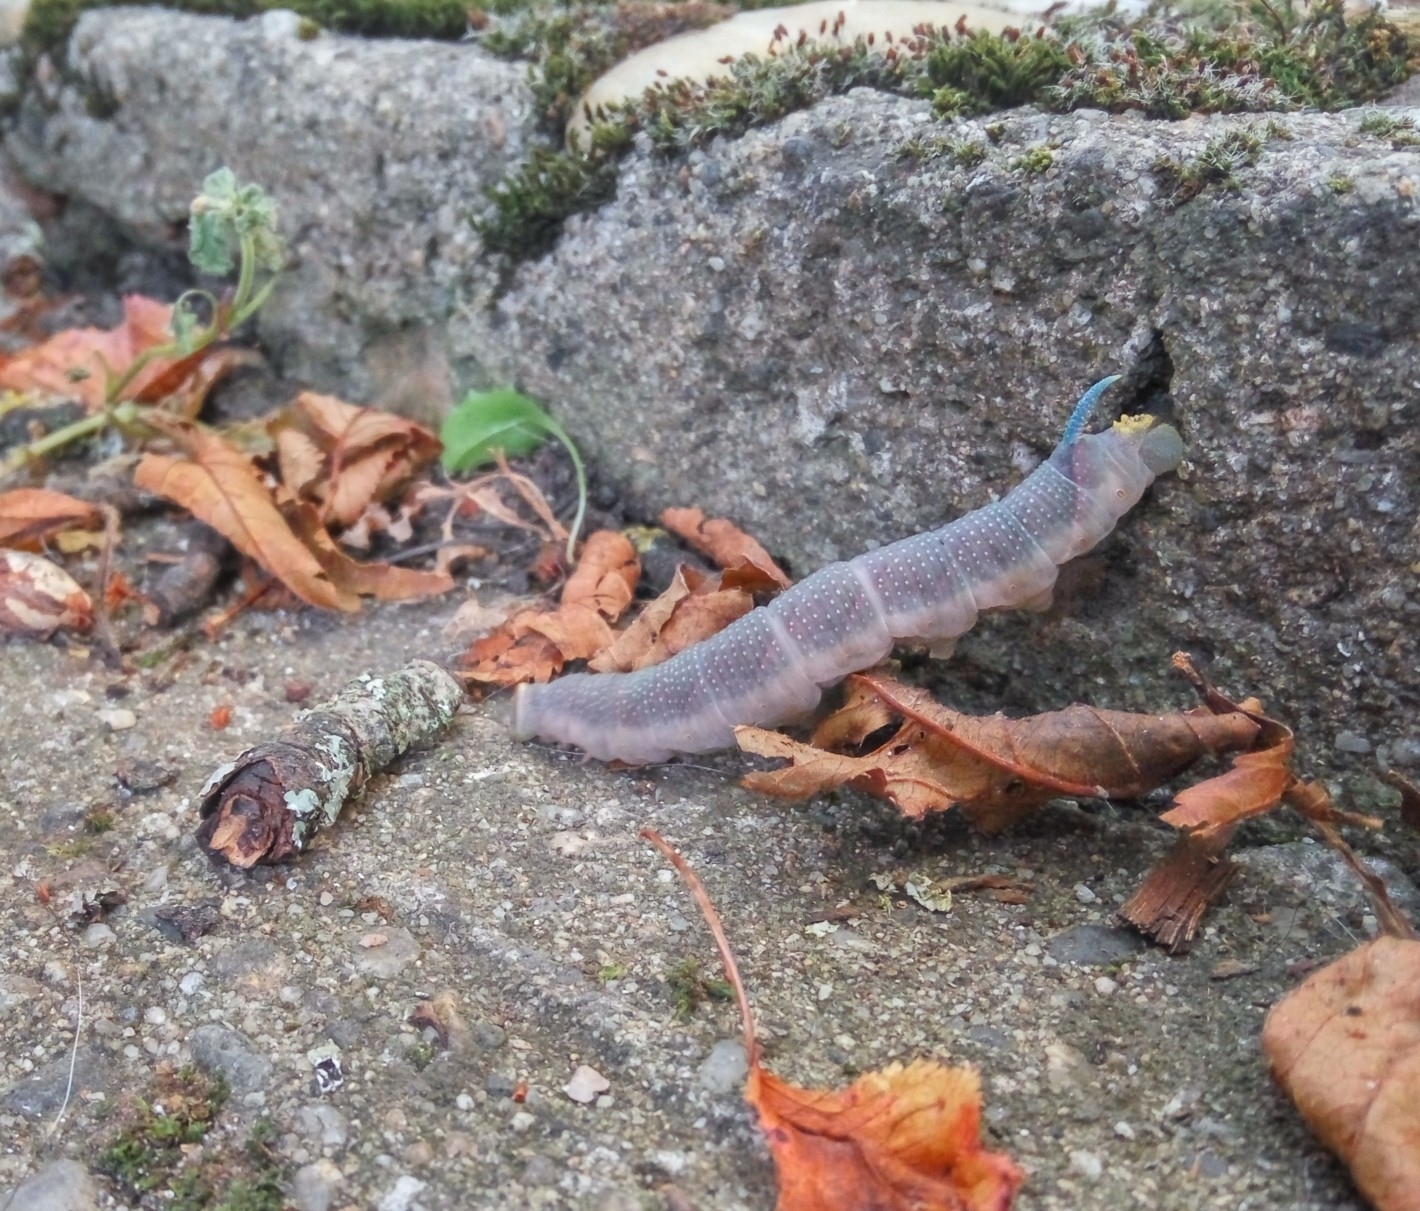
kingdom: Animalia
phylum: Arthropoda
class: Insecta
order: Lepidoptera
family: Sphingidae
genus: Mimas
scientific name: Mimas tiliae
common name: Lime hawk-moth
